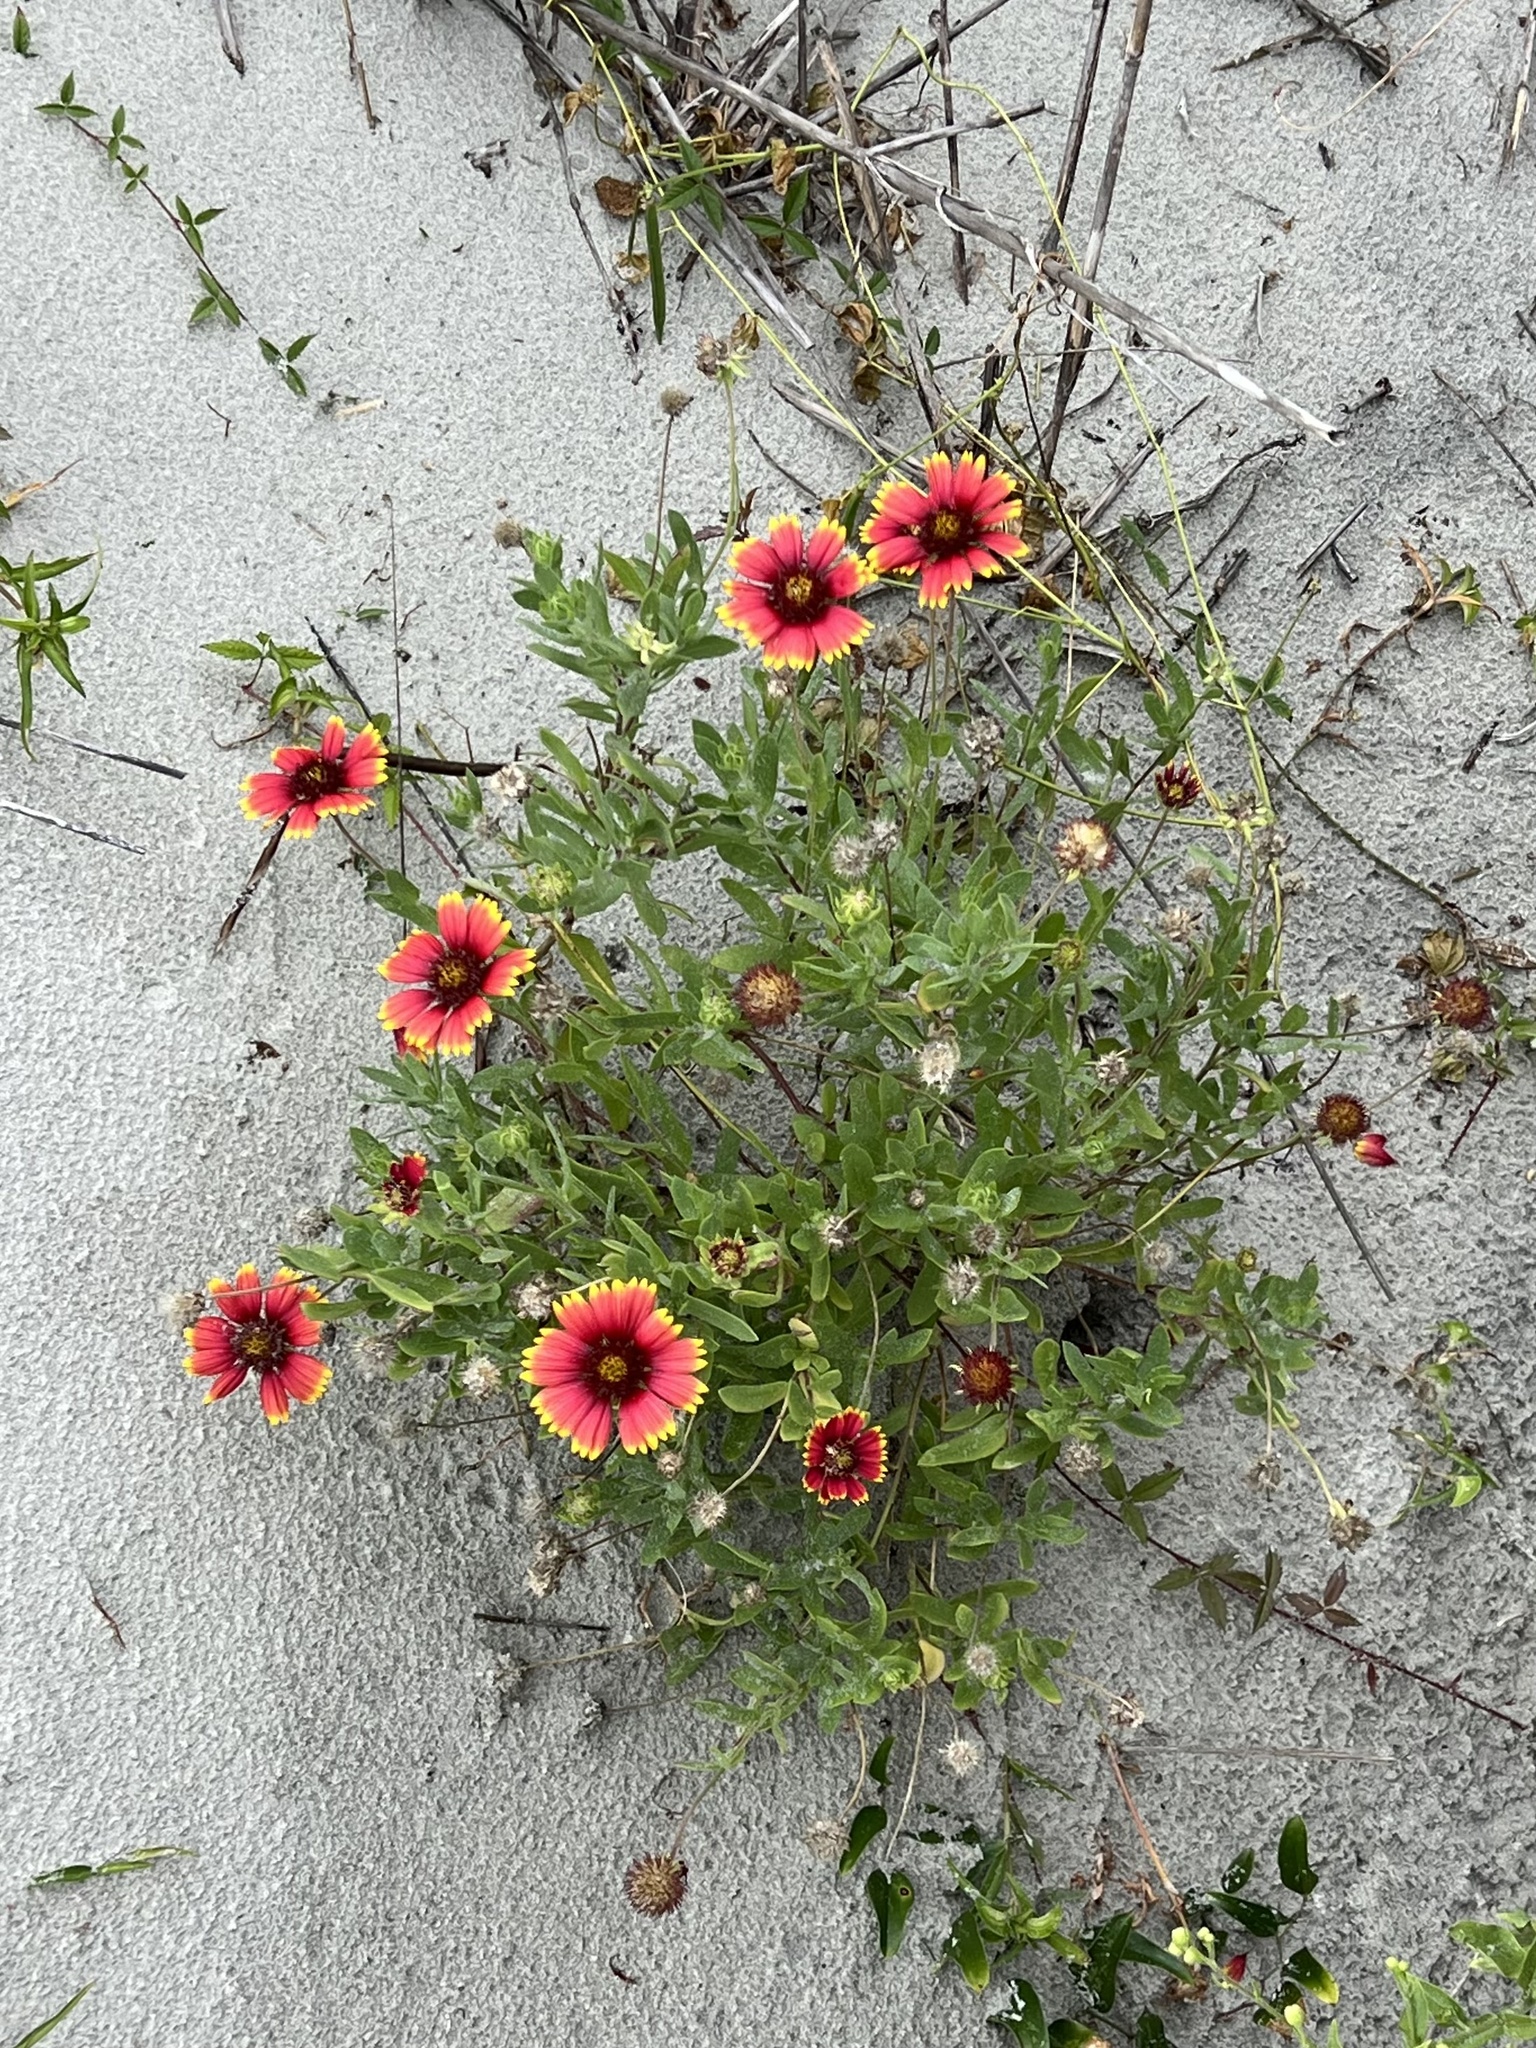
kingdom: Plantae
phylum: Tracheophyta
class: Magnoliopsida
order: Asterales
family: Asteraceae
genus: Gaillardia
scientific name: Gaillardia pulchella
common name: Firewheel
